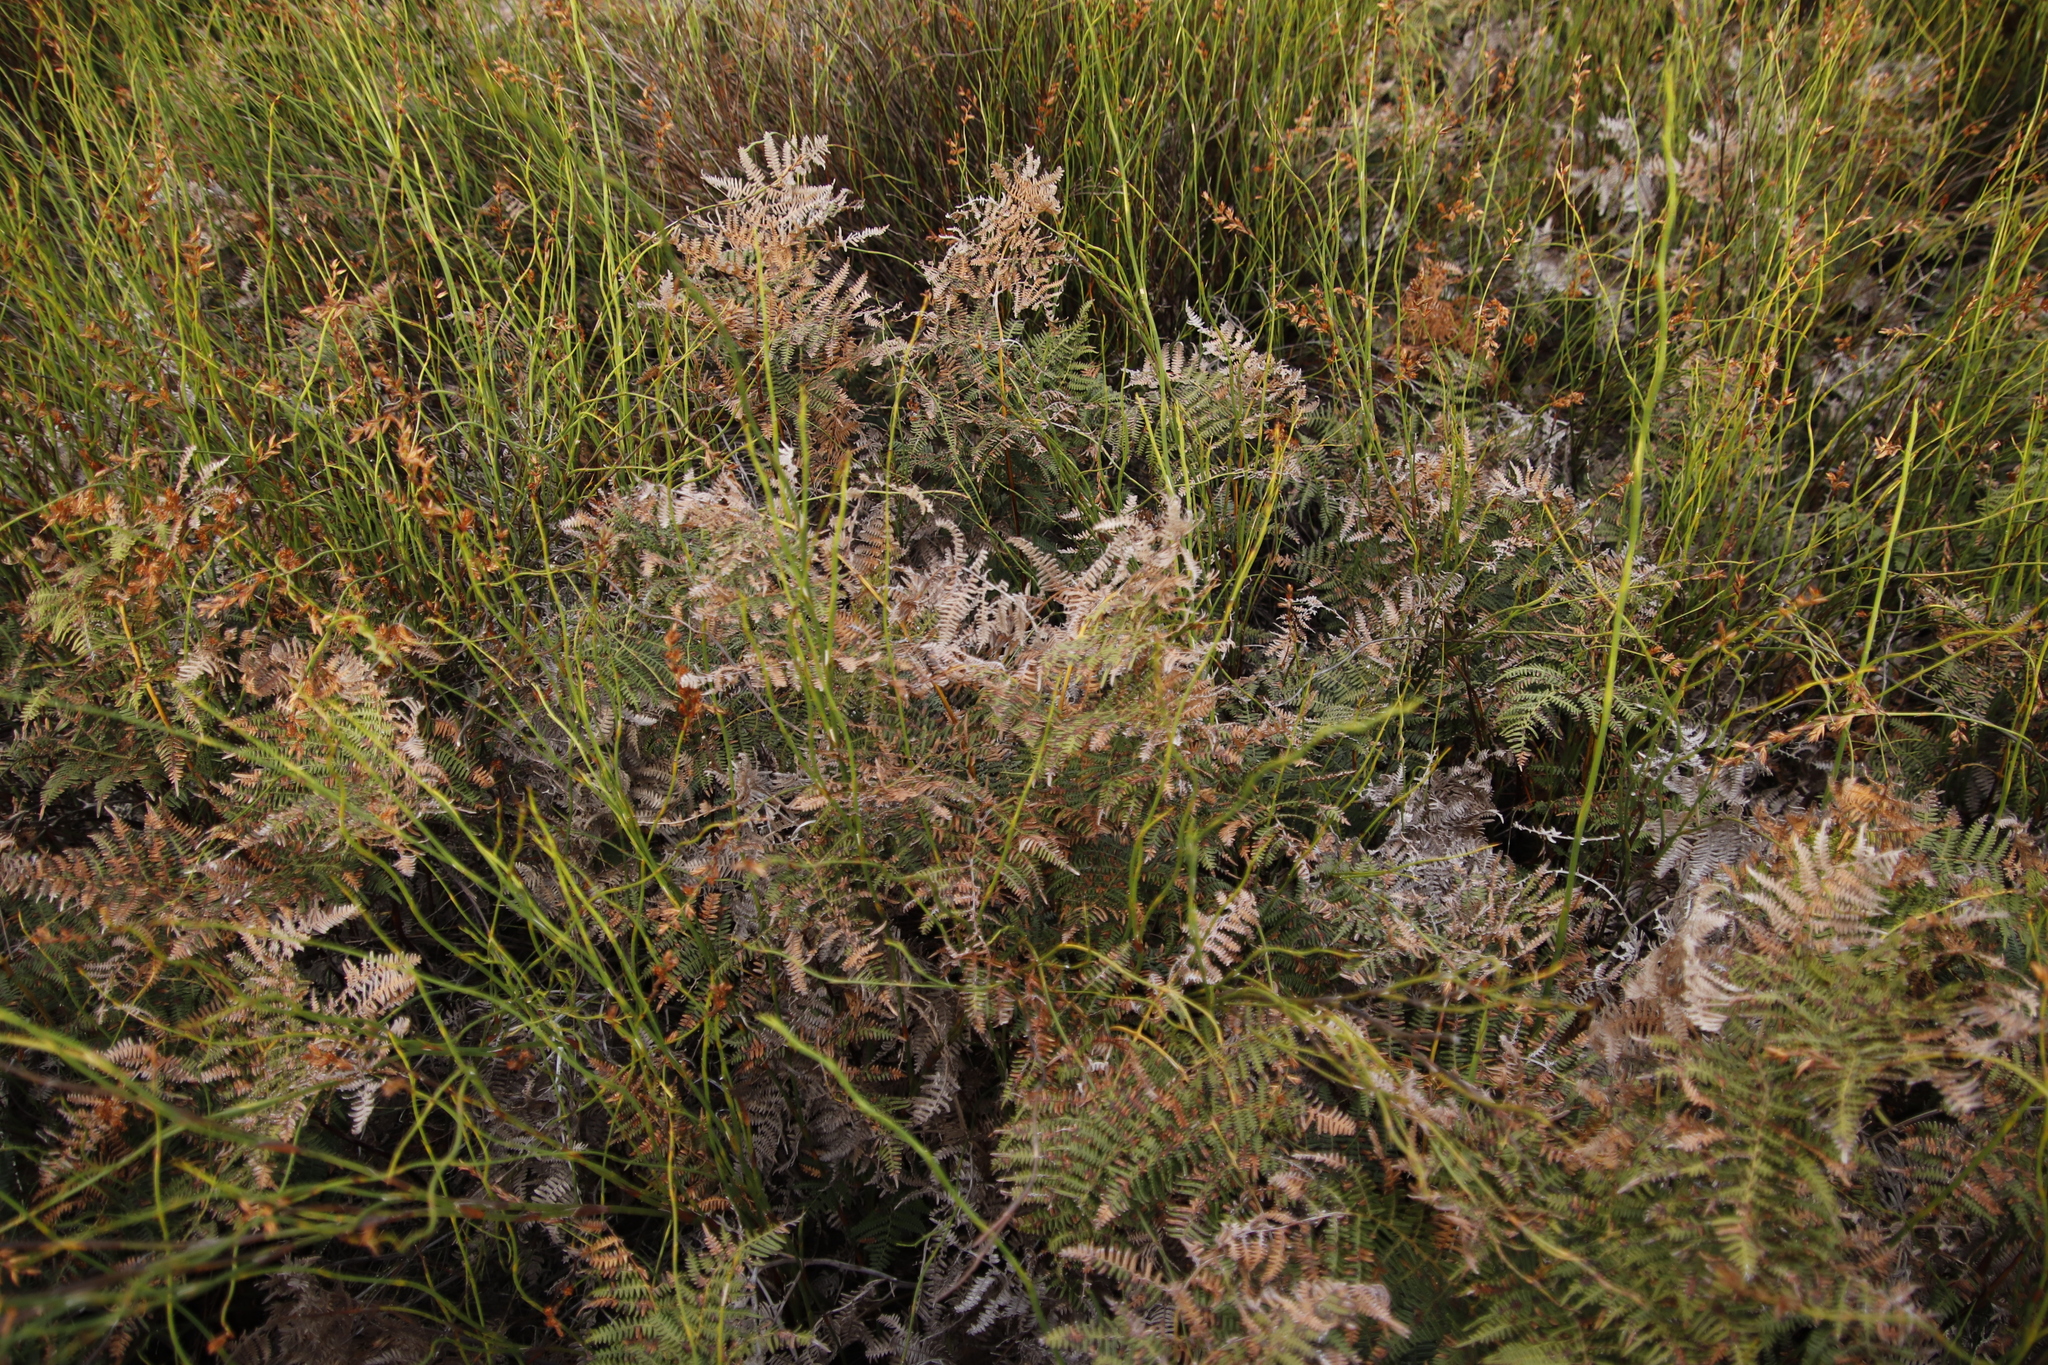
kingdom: Plantae
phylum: Tracheophyta
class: Polypodiopsida
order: Polypodiales
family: Dennstaedtiaceae
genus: Pteridium
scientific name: Pteridium aquilinum
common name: Bracken
